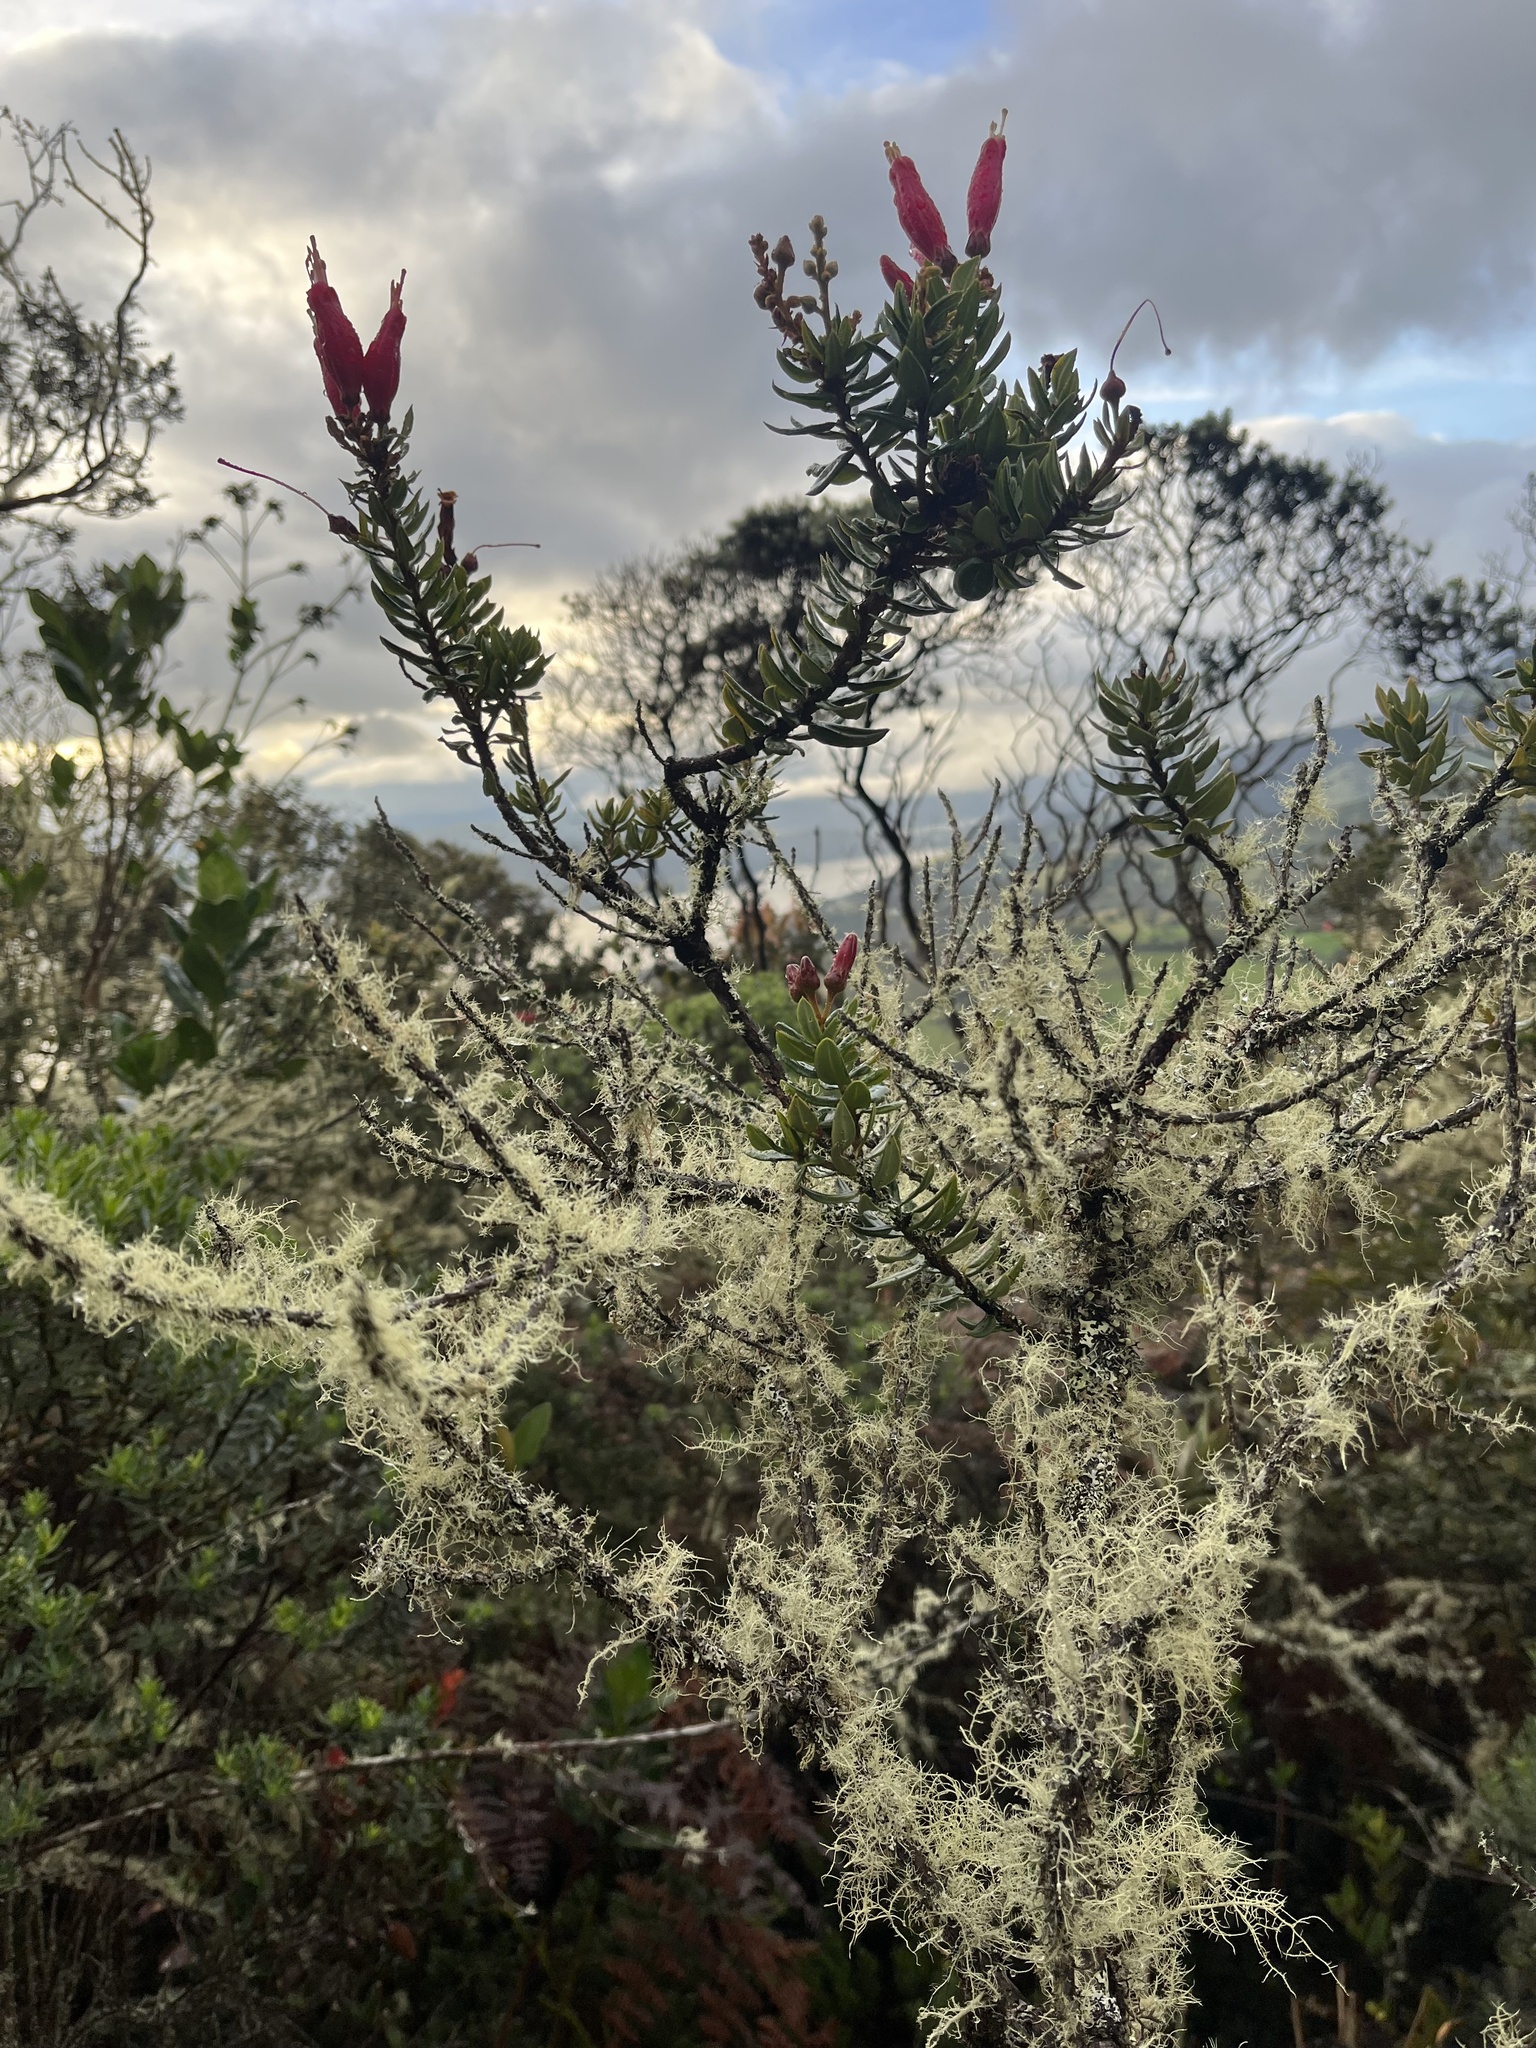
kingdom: Plantae
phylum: Tracheophyta
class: Magnoliopsida
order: Ericales
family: Ericaceae
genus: Bejaria
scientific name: Bejaria resinosa
